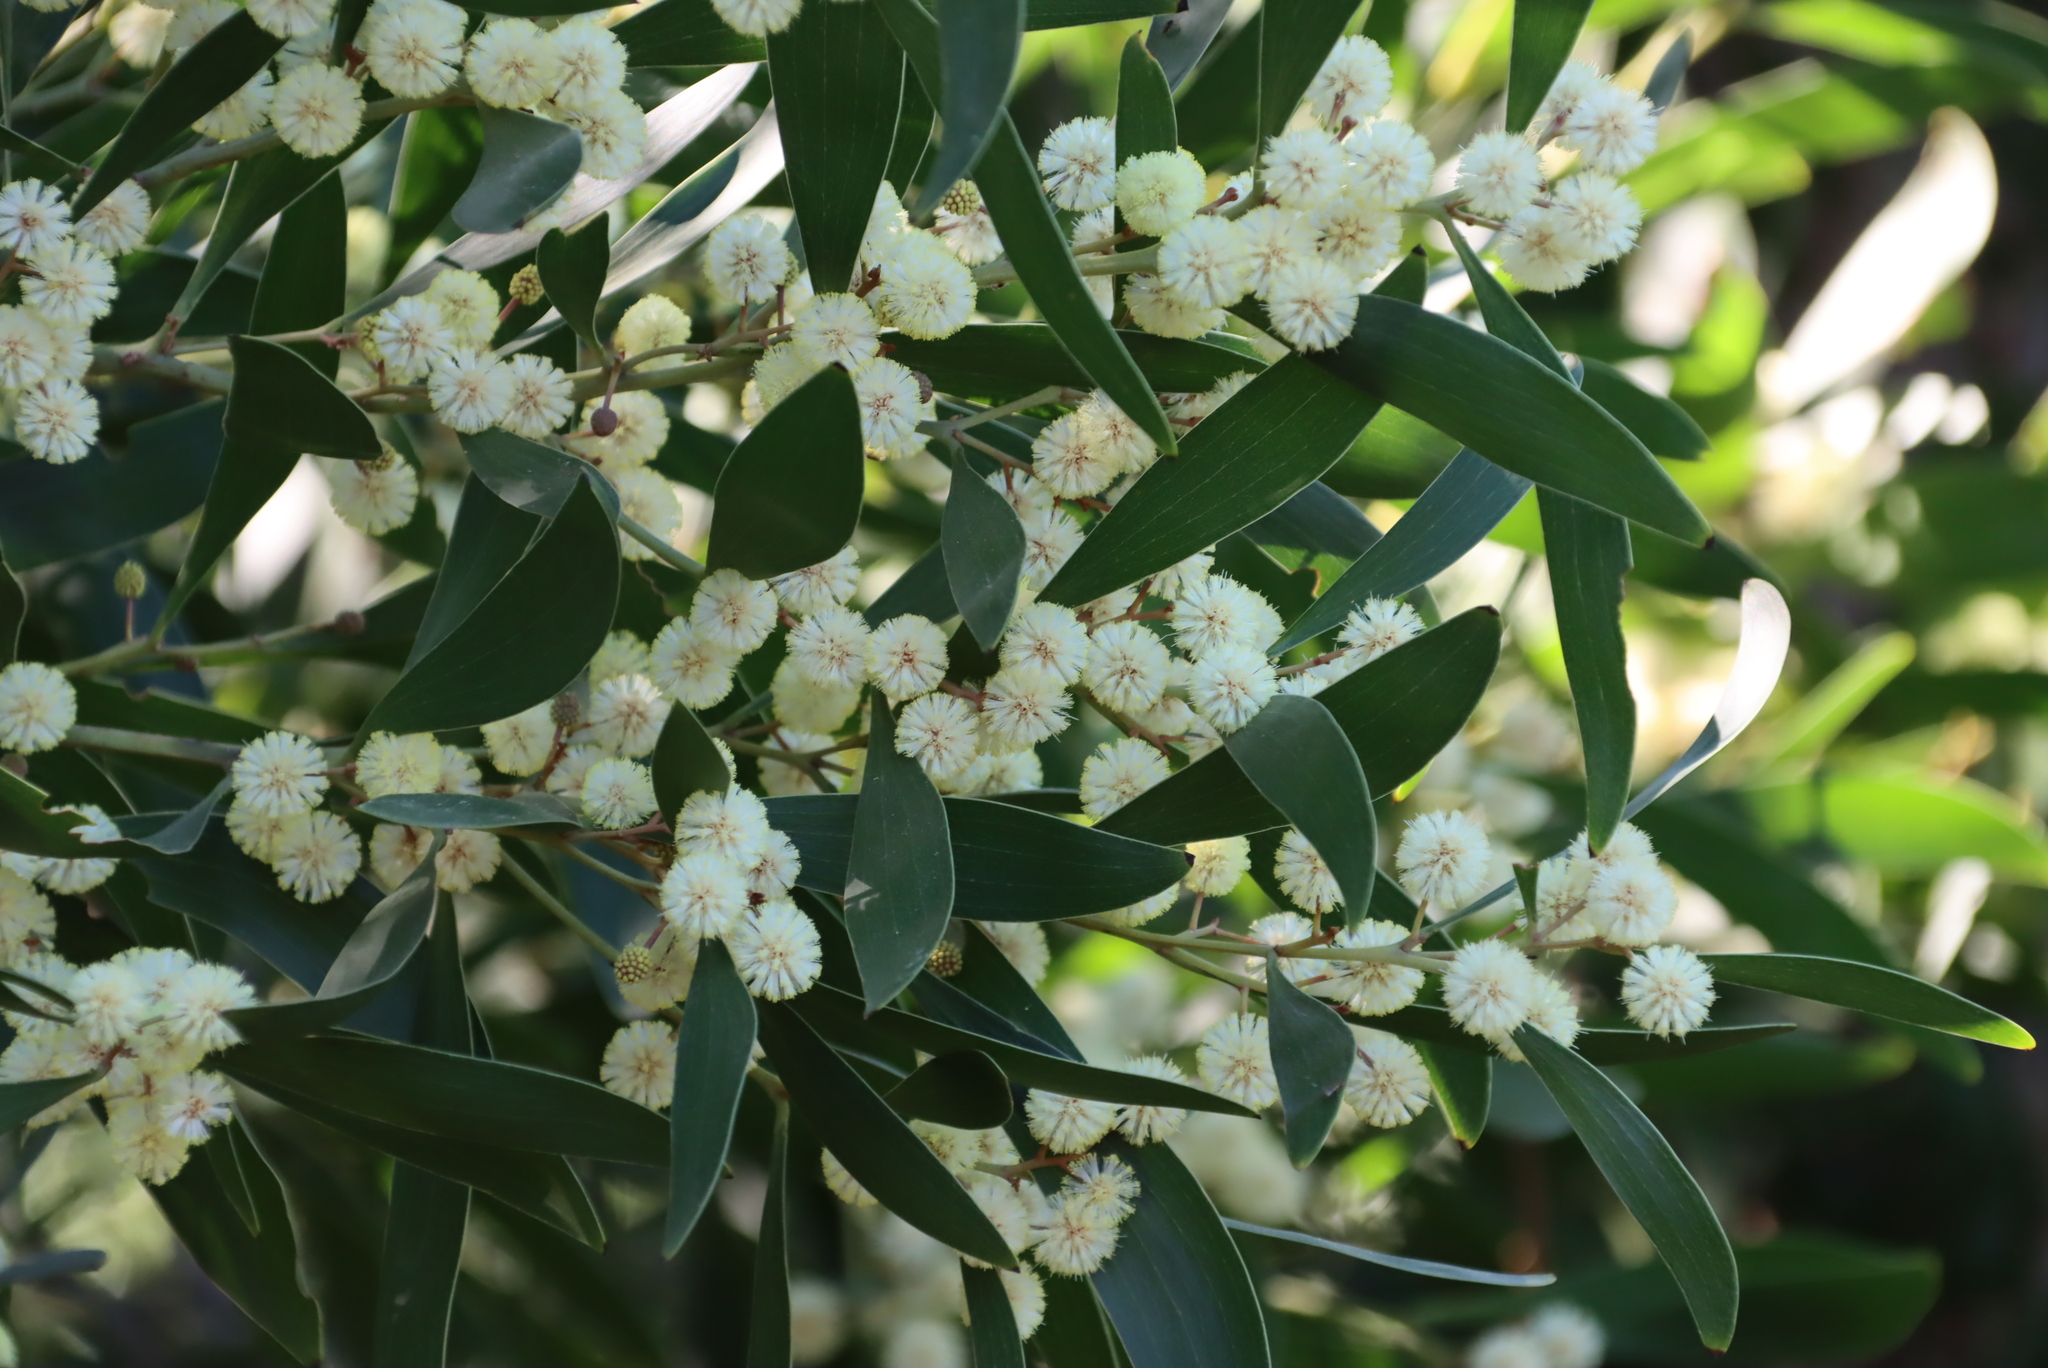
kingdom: Plantae
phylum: Tracheophyta
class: Magnoliopsida
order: Fabales
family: Fabaceae
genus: Acacia
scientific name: Acacia melanoxylon
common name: Blackwood
